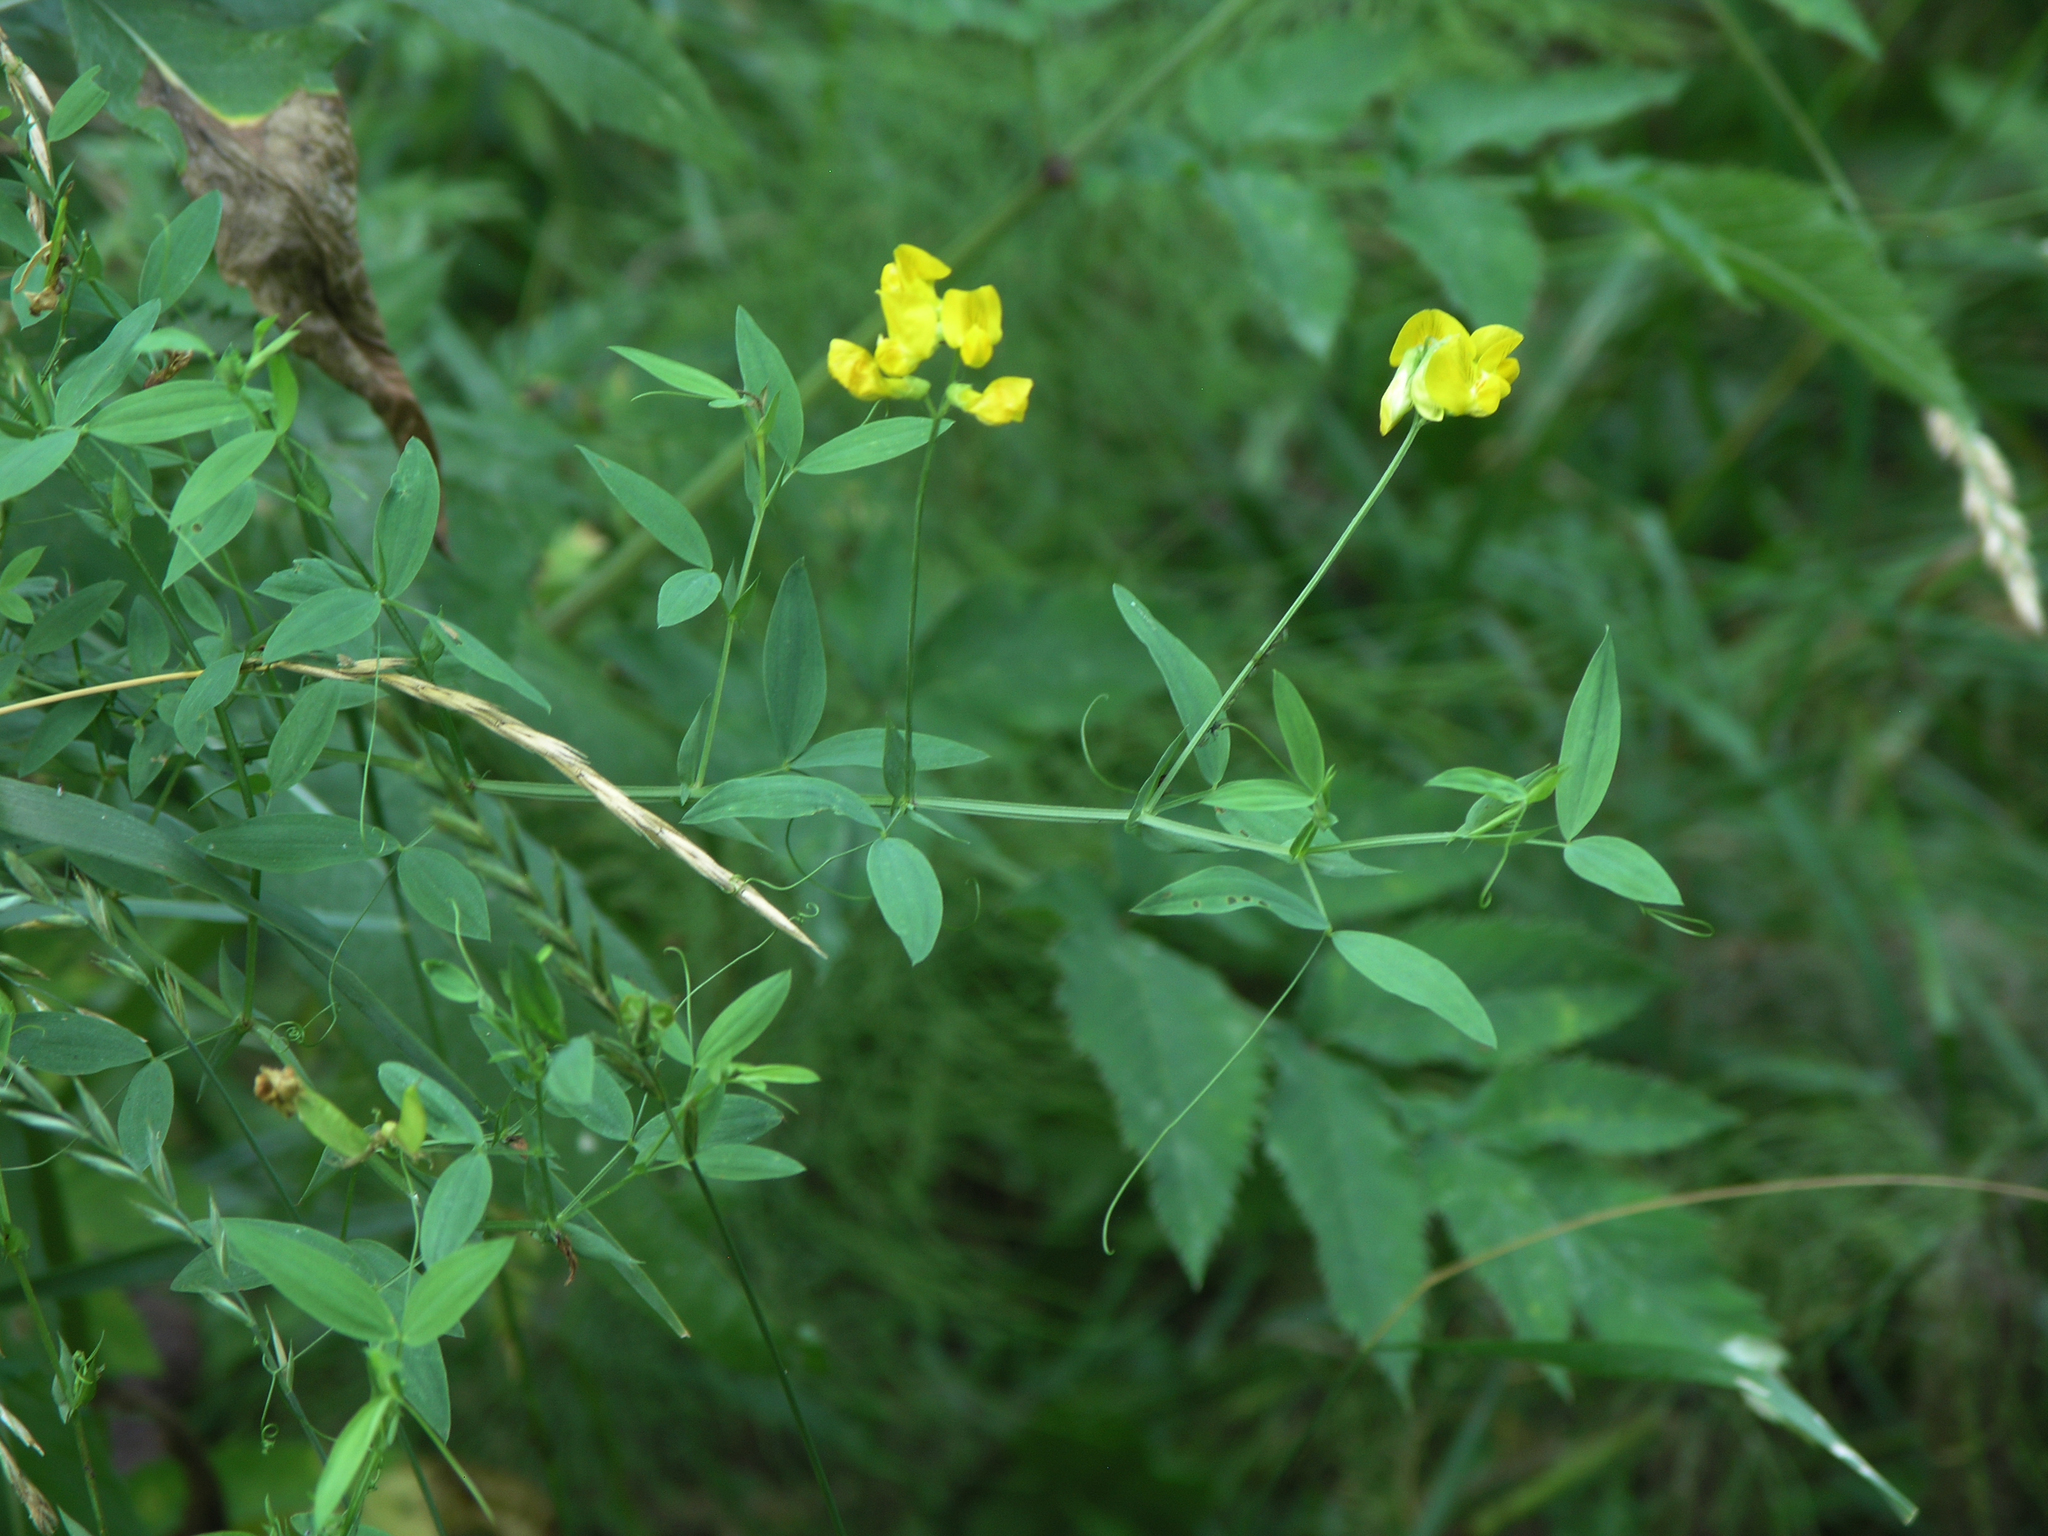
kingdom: Plantae
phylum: Tracheophyta
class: Magnoliopsida
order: Fabales
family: Fabaceae
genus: Lathyrus
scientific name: Lathyrus pratensis
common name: Meadow vetchling
